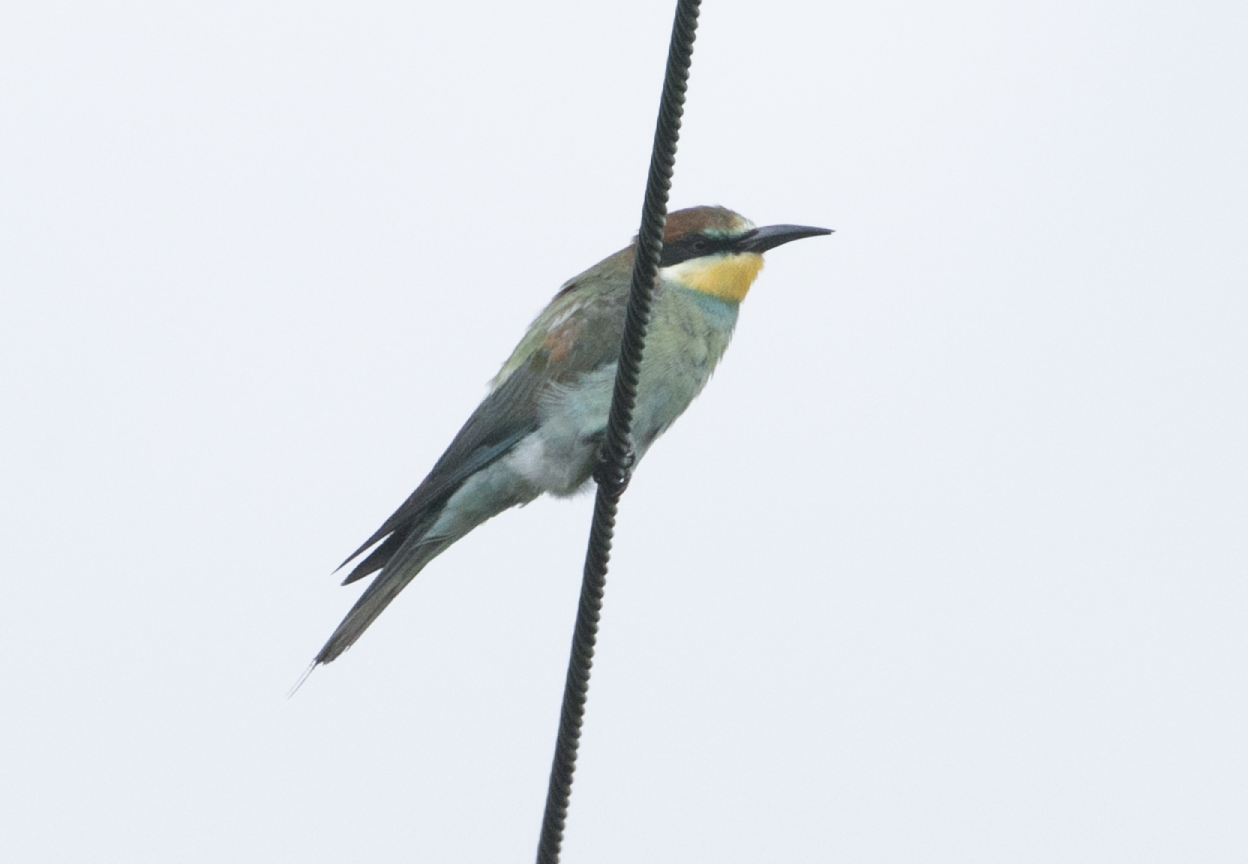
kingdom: Animalia
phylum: Chordata
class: Aves
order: Coraciiformes
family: Meropidae
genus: Merops
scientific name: Merops apiaster
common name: European bee-eater
